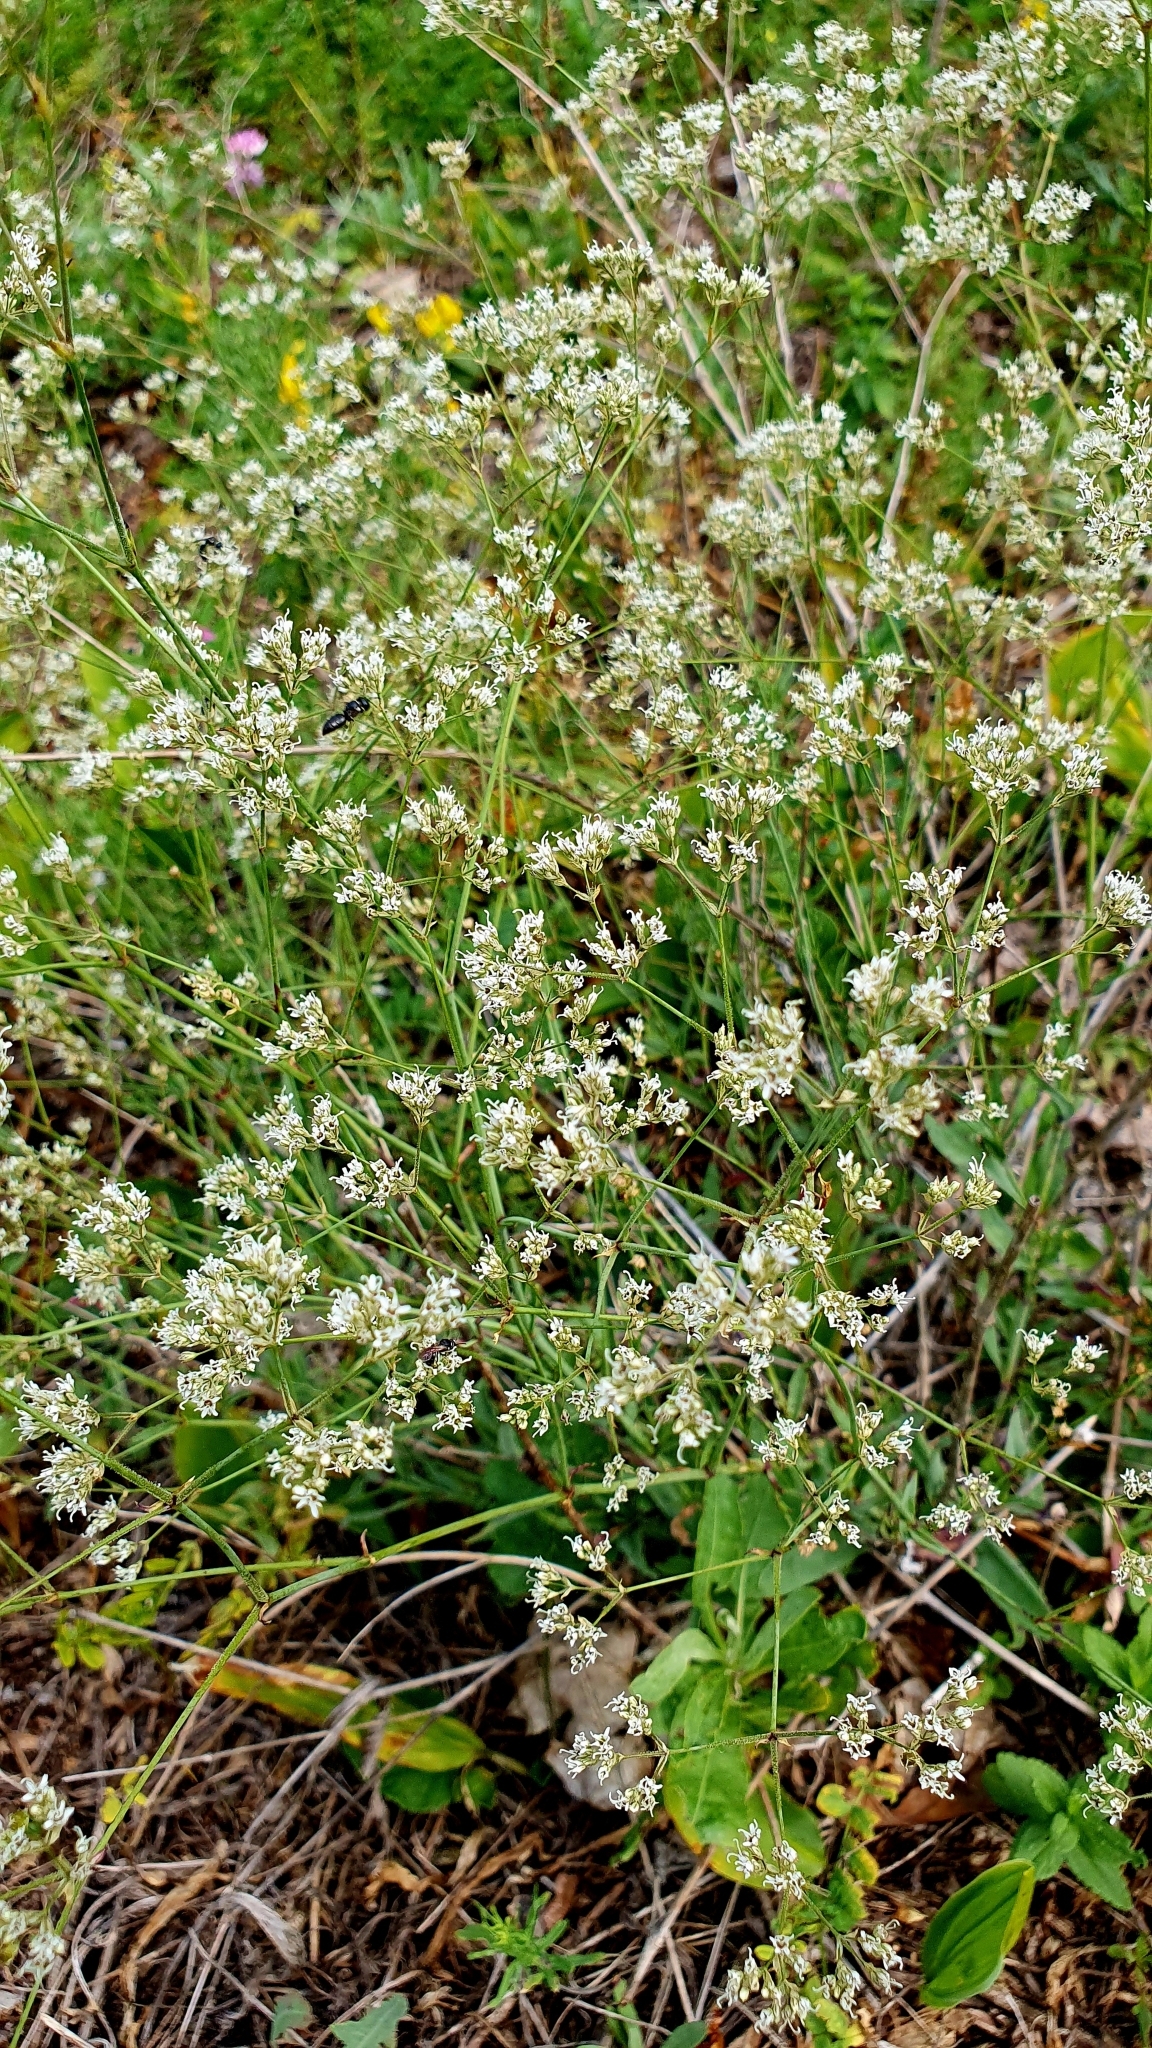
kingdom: Plantae
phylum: Tracheophyta
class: Magnoliopsida
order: Caryophyllales
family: Caryophyllaceae
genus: Gypsophila
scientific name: Gypsophila altissima
